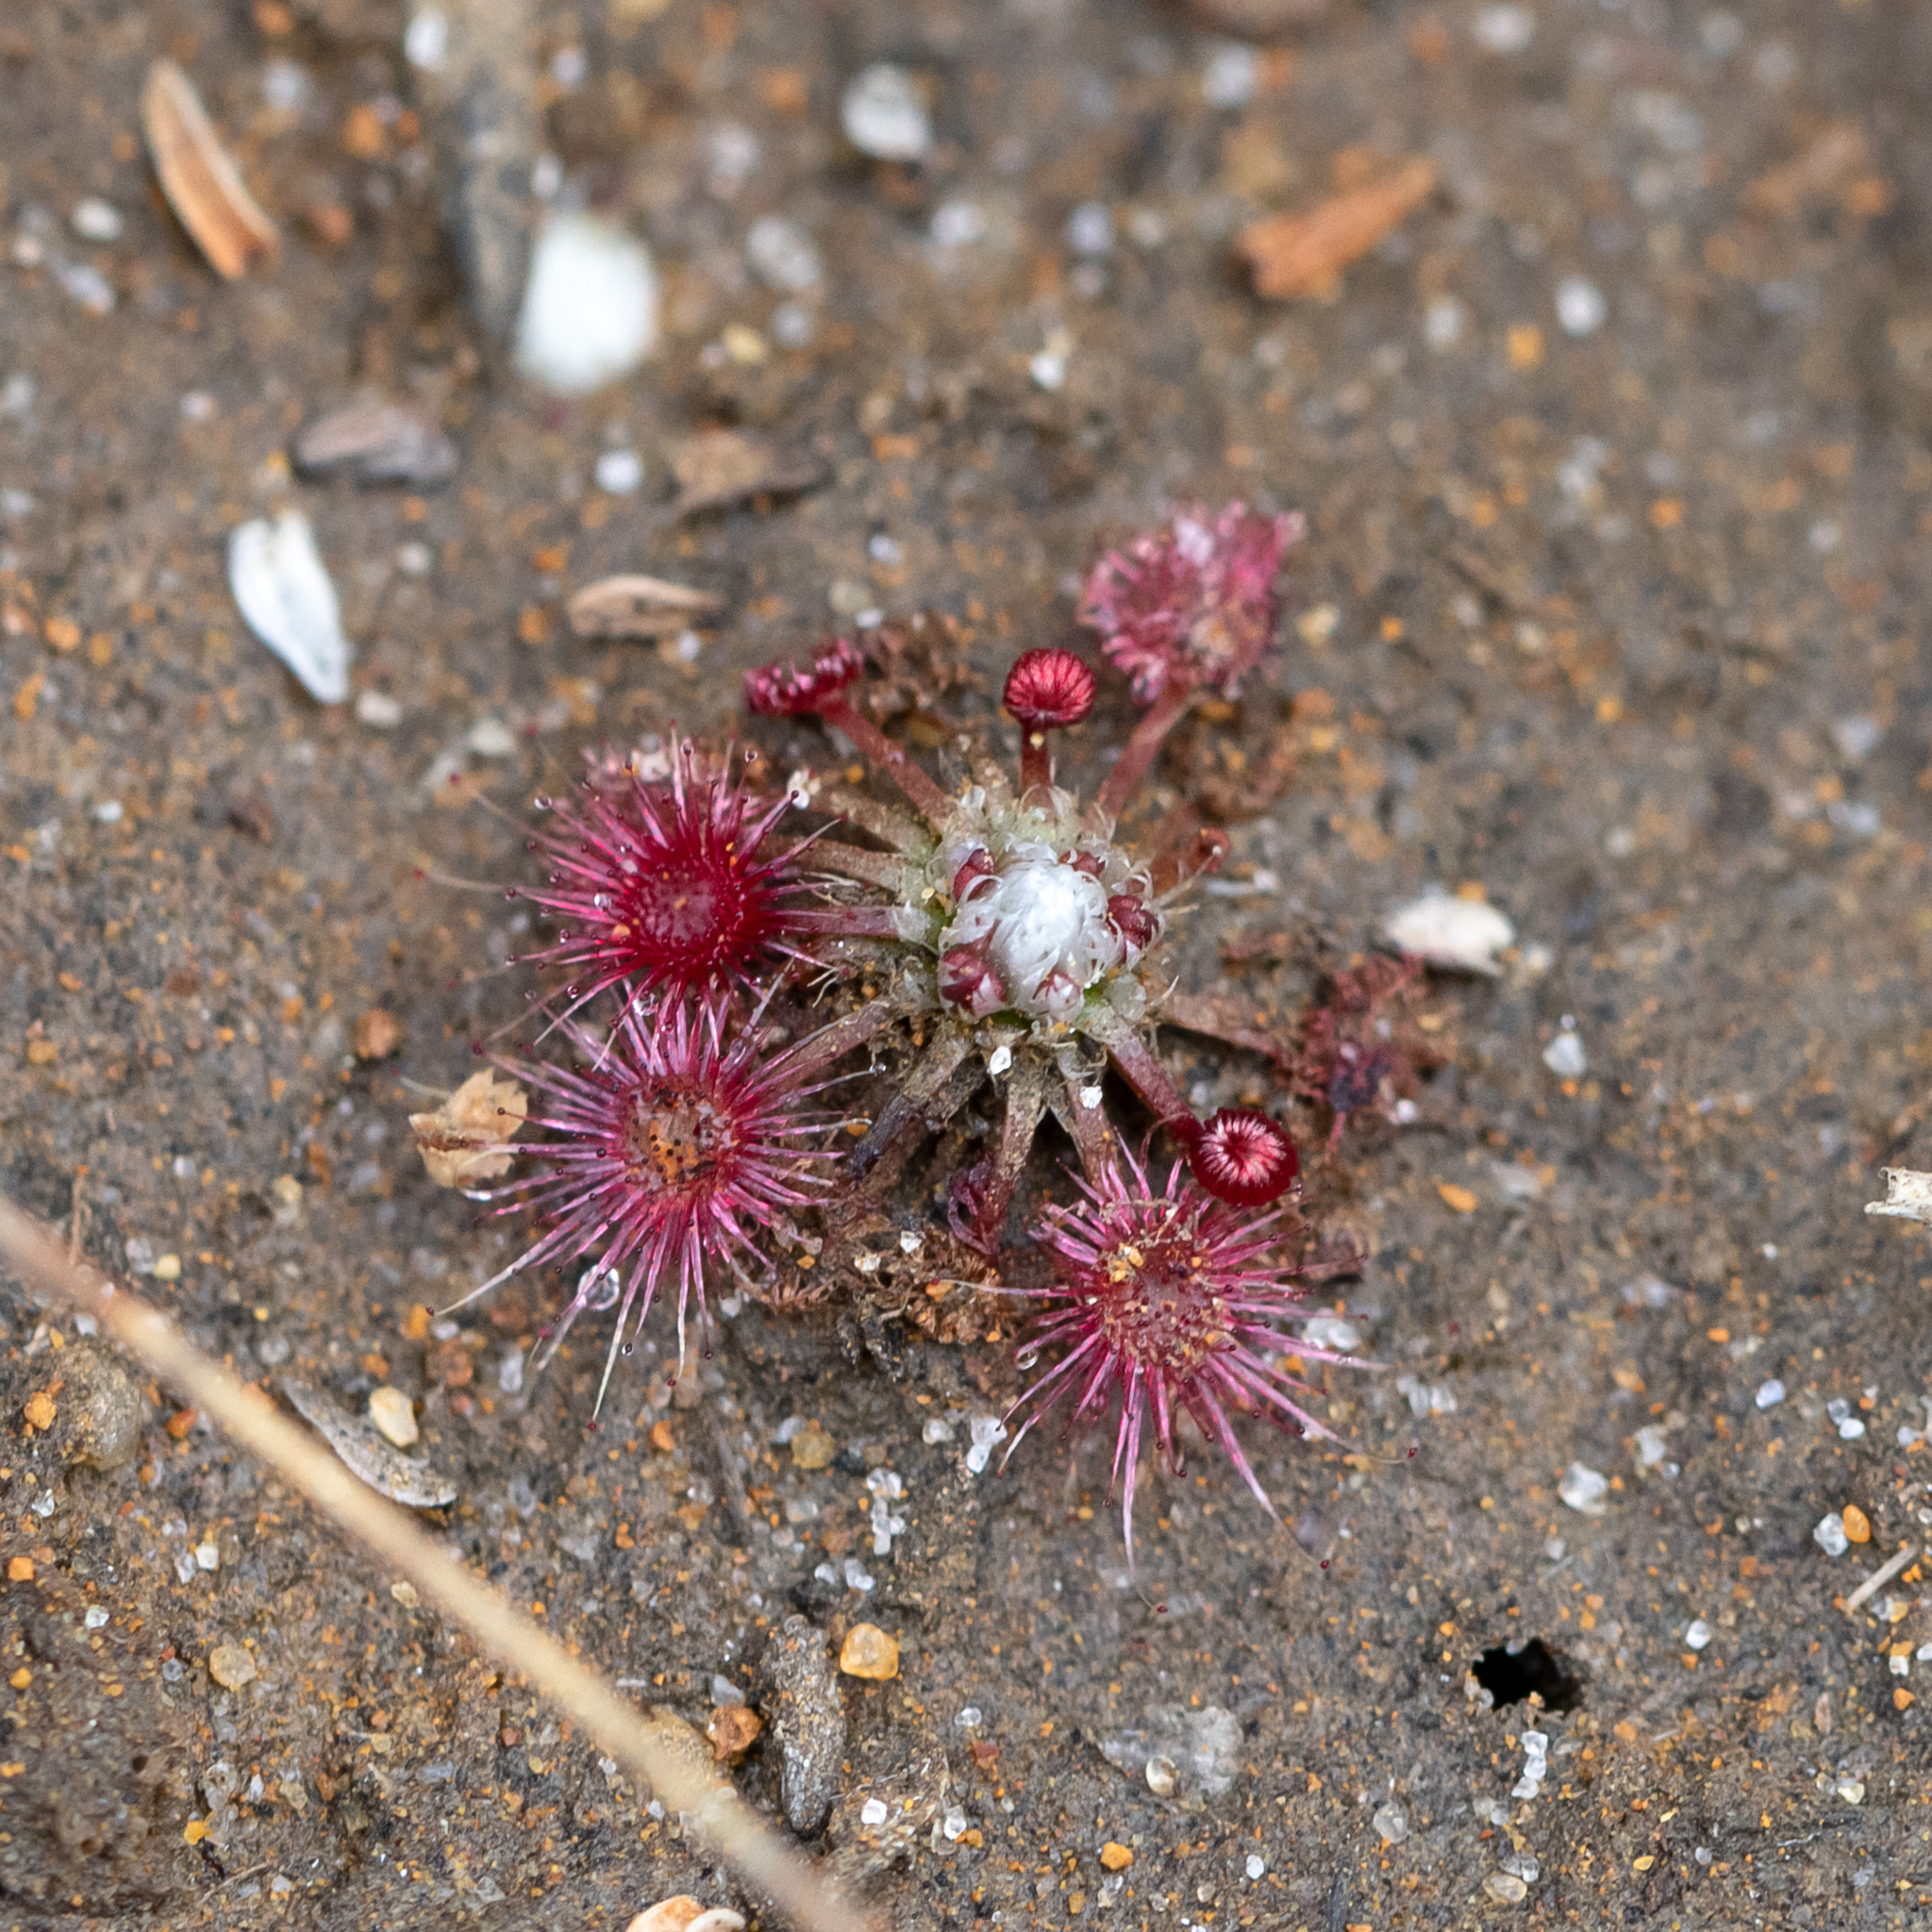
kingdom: Plantae
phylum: Tracheophyta
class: Magnoliopsida
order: Caryophyllales
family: Droseraceae
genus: Drosera
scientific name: Drosera occidentalis
